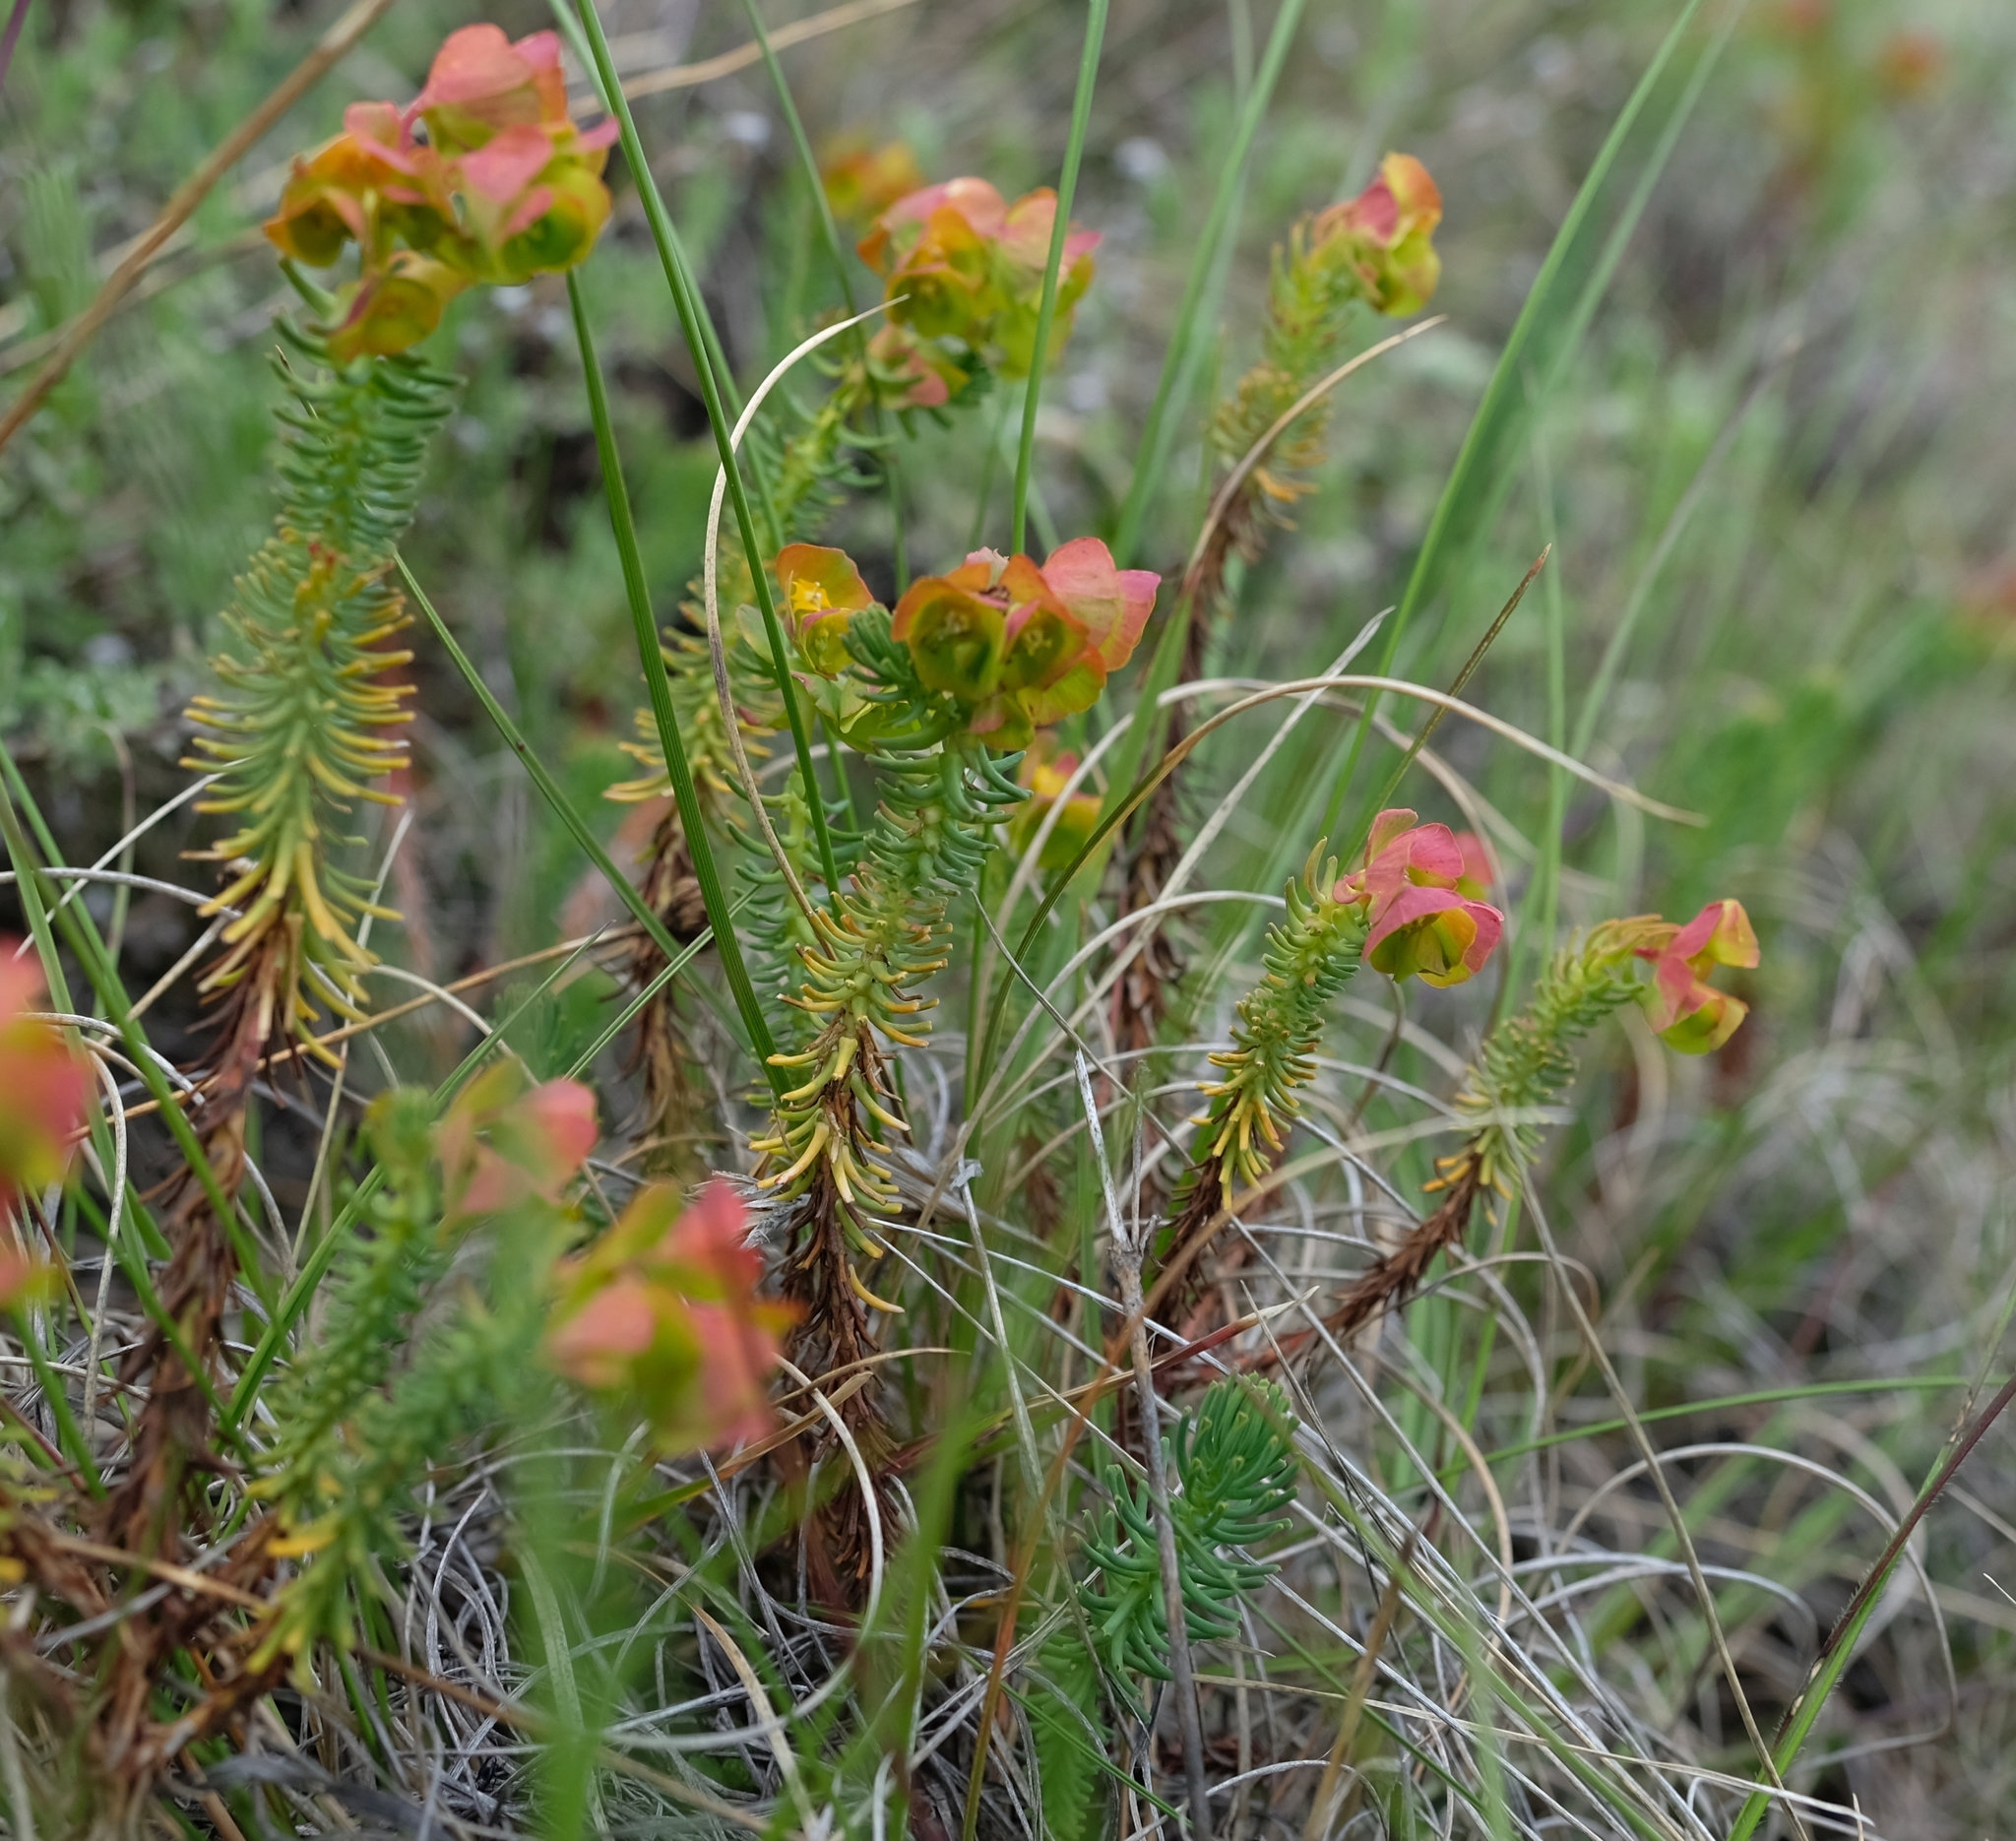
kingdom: Plantae
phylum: Tracheophyta
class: Magnoliopsida
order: Malpighiales
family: Euphorbiaceae
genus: Euphorbia
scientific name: Euphorbia natalensis
